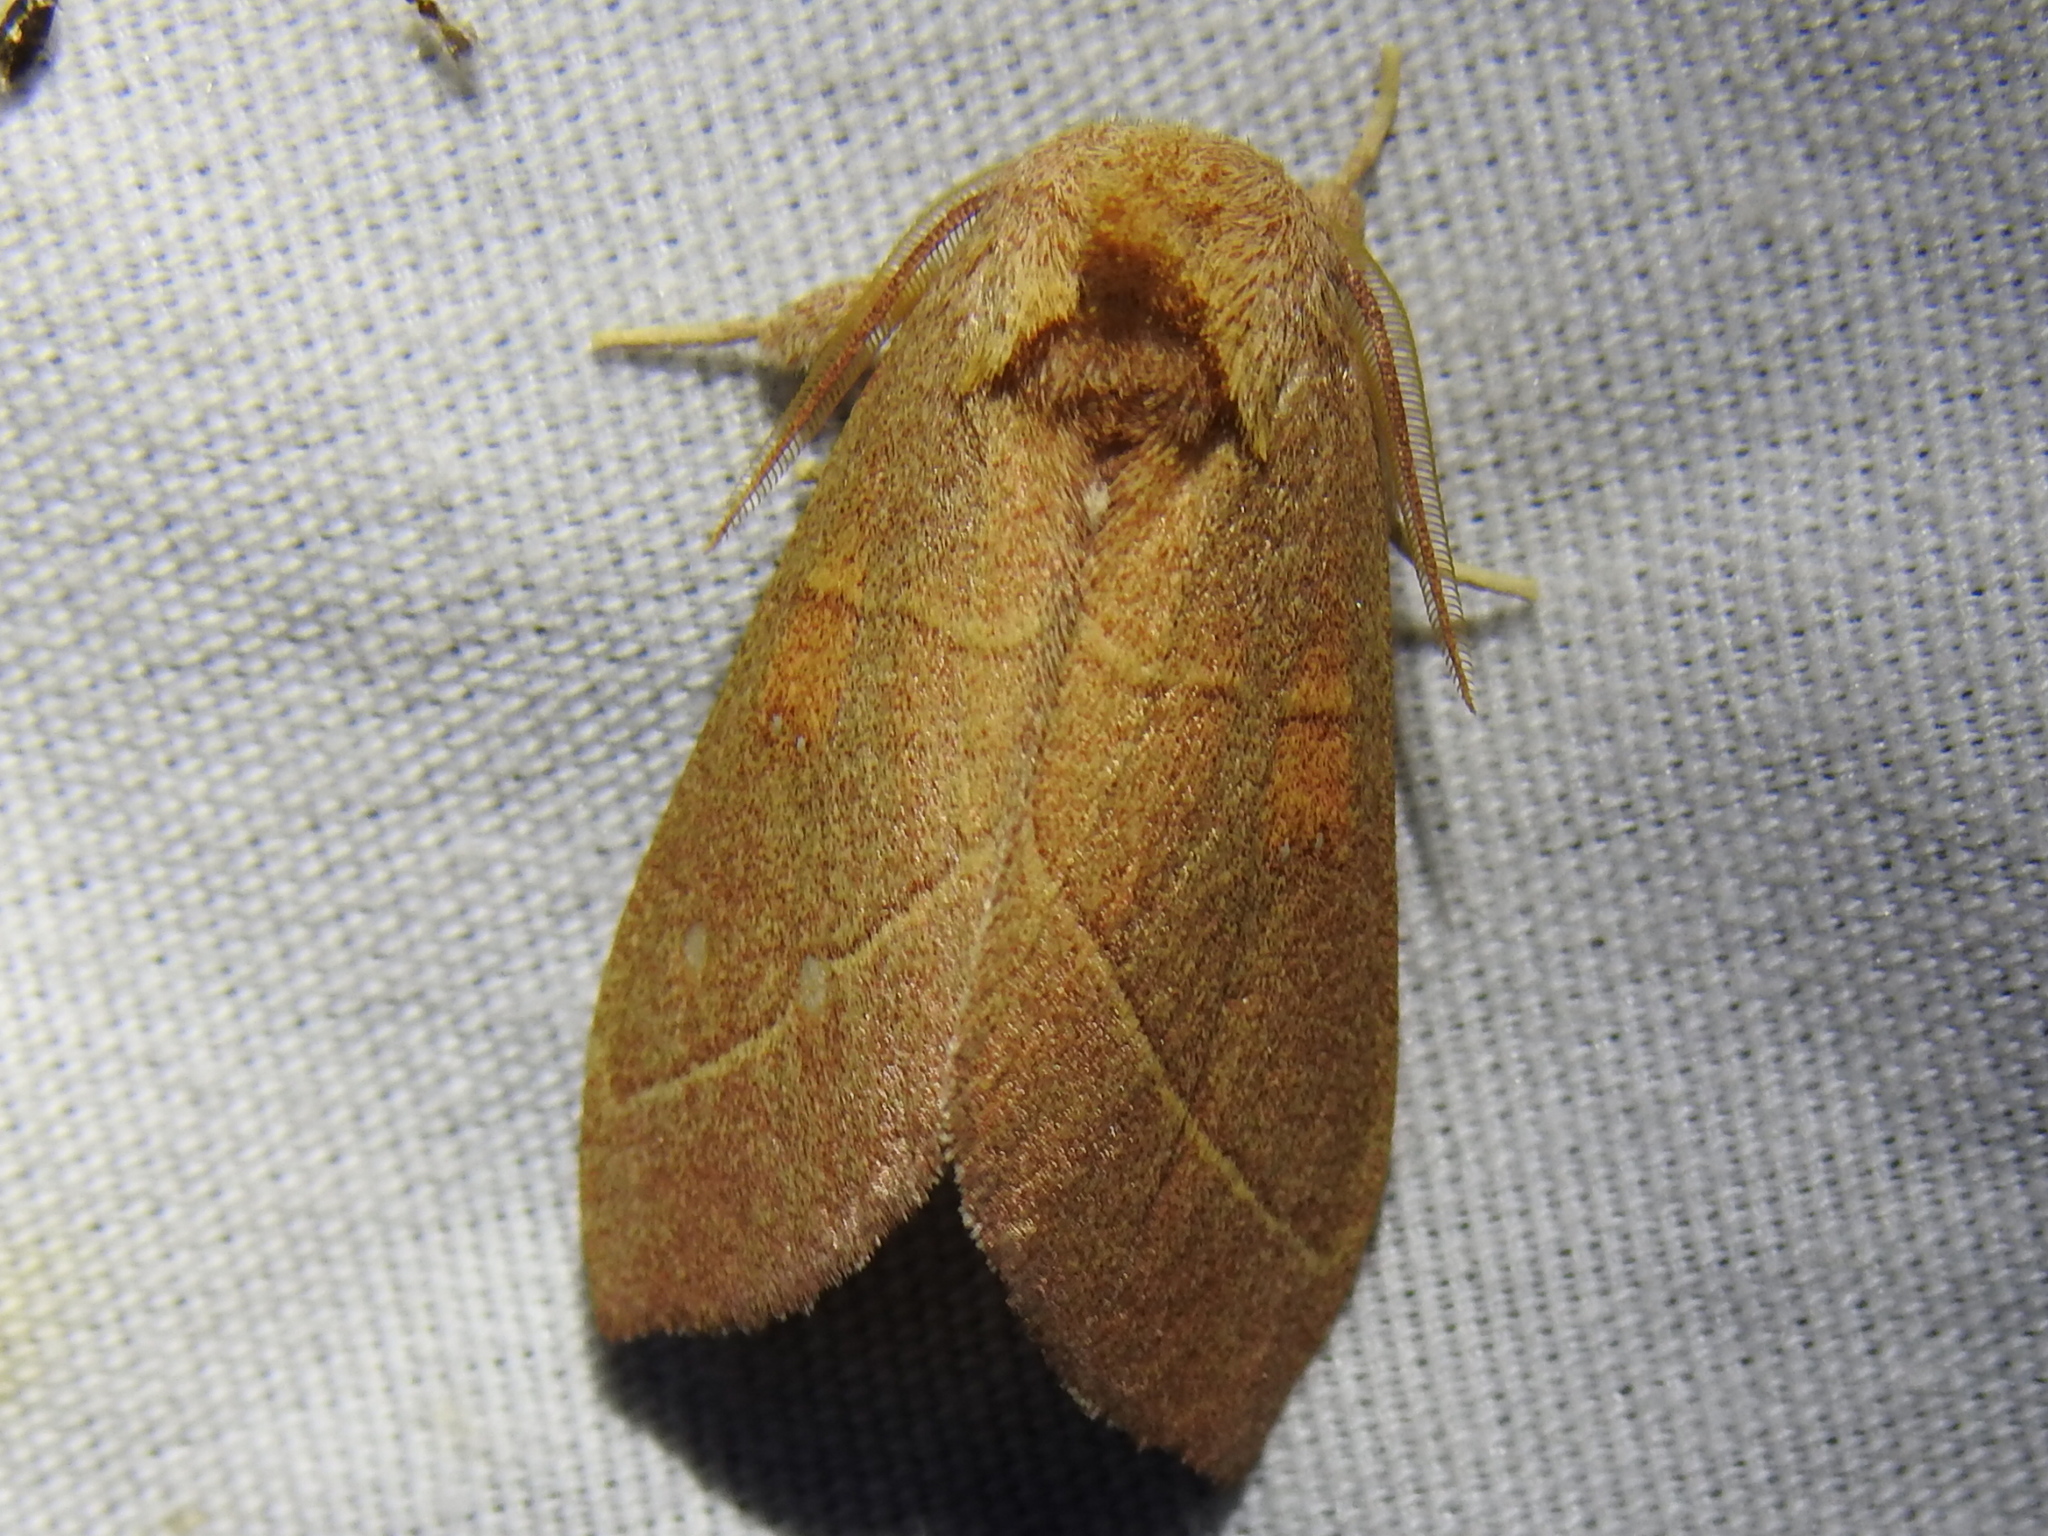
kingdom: Animalia
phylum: Arthropoda
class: Insecta
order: Lepidoptera
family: Notodontidae
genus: Nadata
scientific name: Nadata gibbosa
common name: White-dotted prominent
